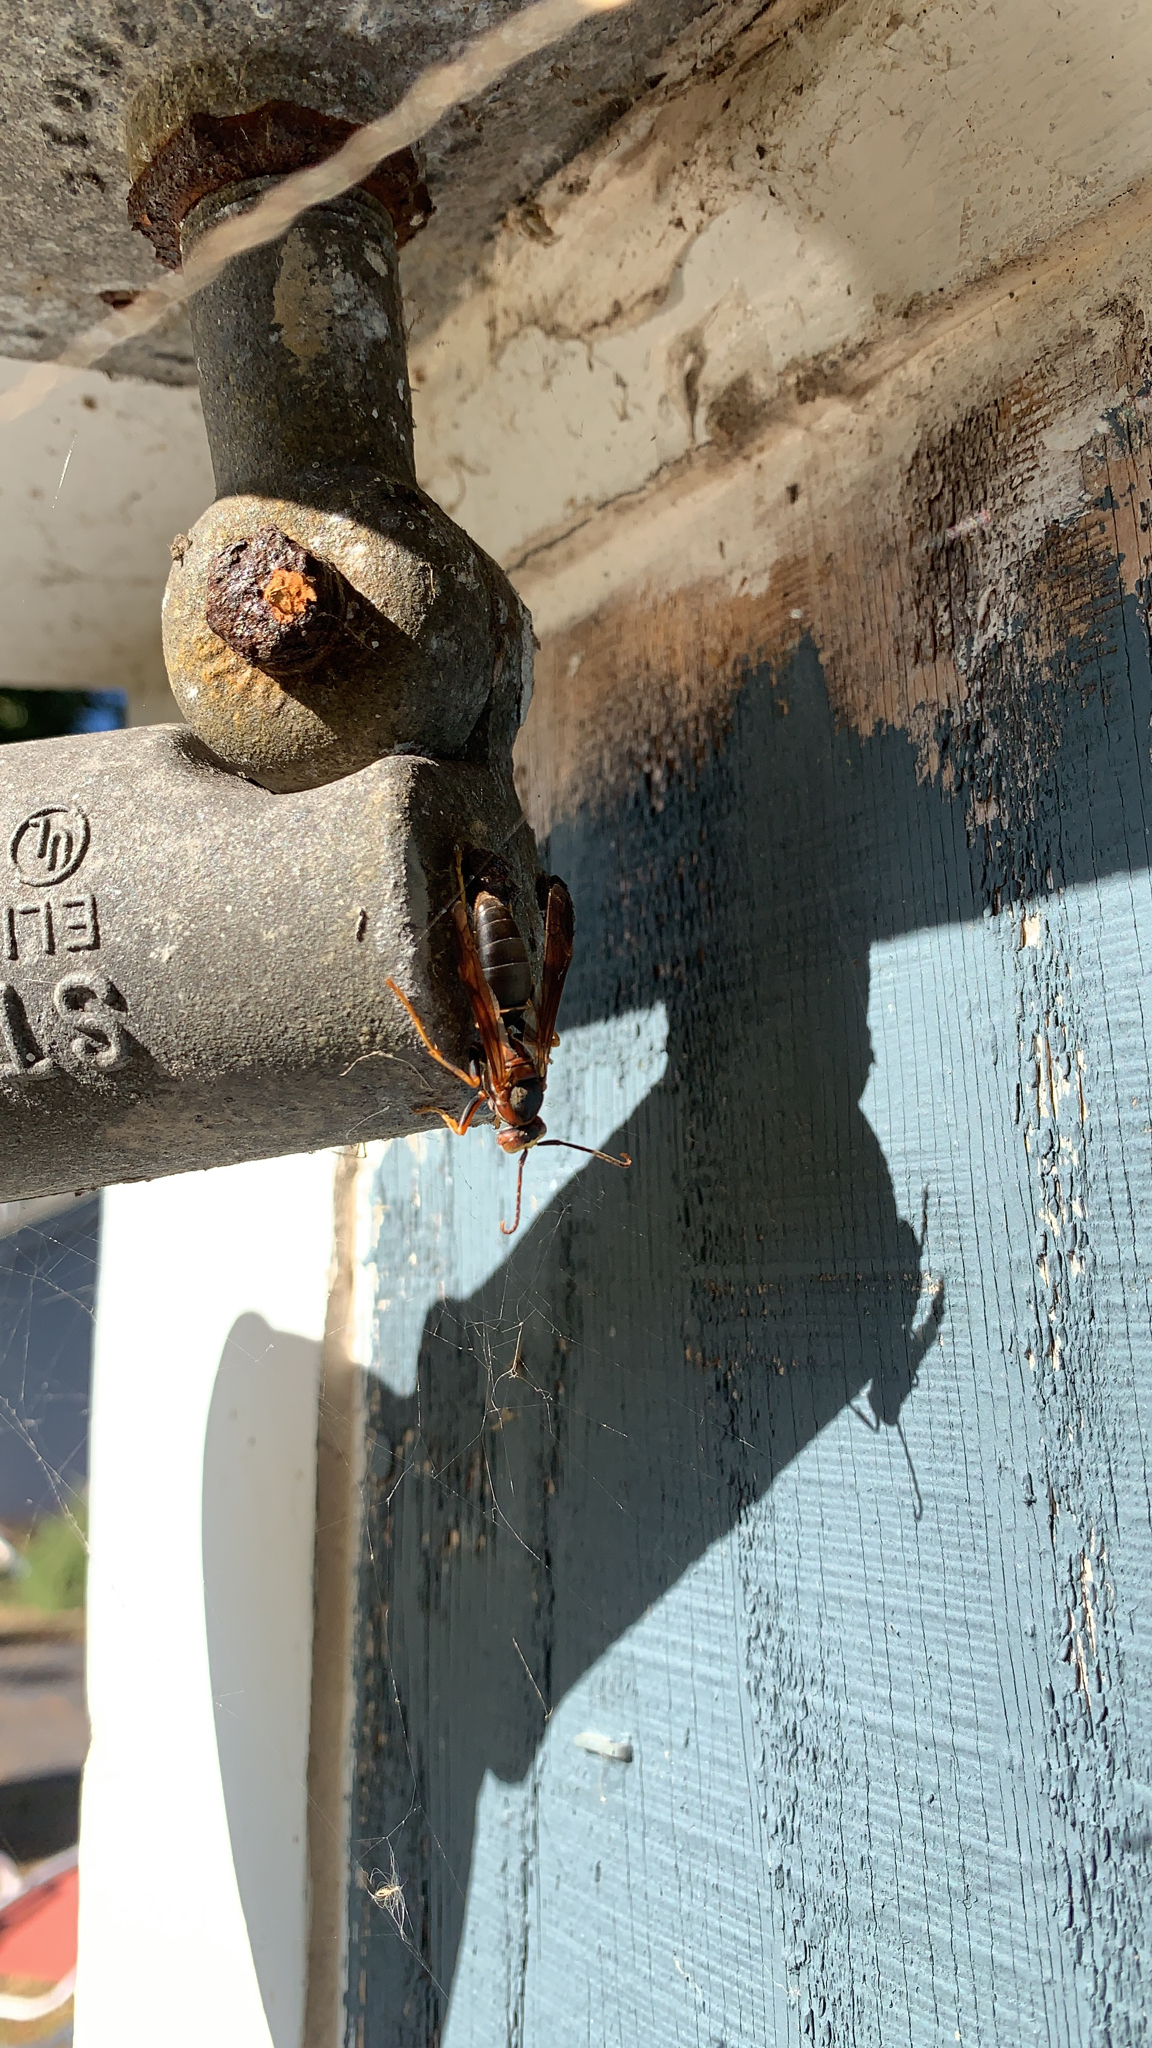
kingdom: Animalia
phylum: Arthropoda
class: Insecta
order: Hymenoptera
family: Eumenidae
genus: Polistes
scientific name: Polistes fuscatus
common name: Dark paper wasp
